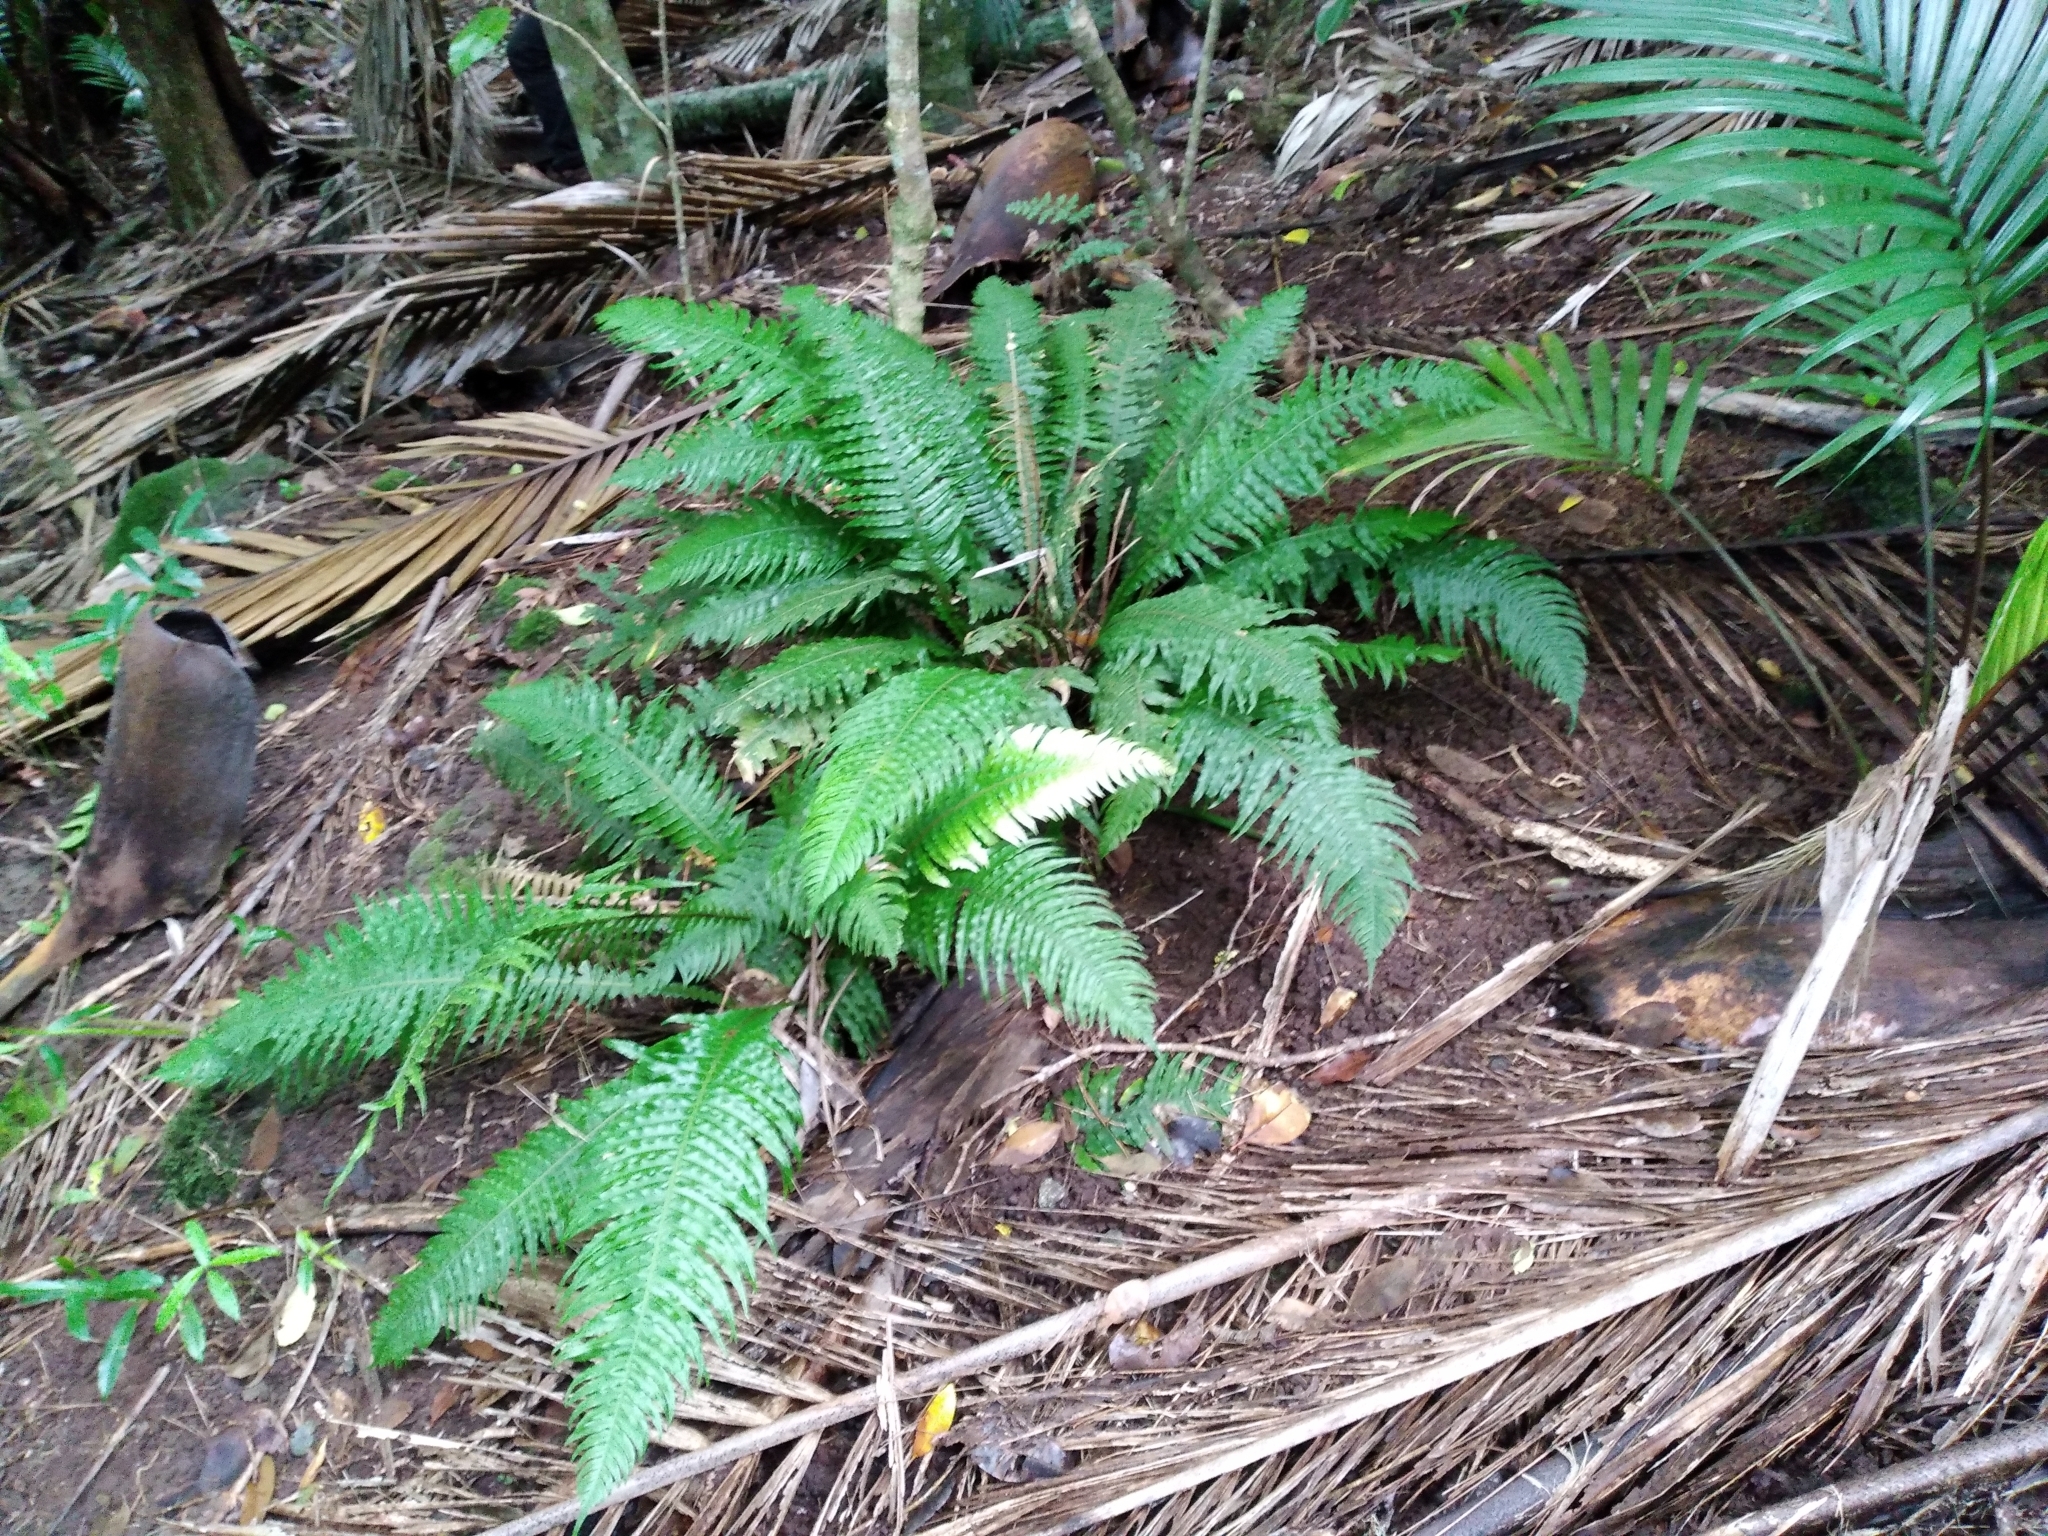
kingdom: Plantae
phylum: Tracheophyta
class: Polypodiopsida
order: Polypodiales
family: Blechnaceae
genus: Austroblechnum
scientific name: Austroblechnum norfolkianum
